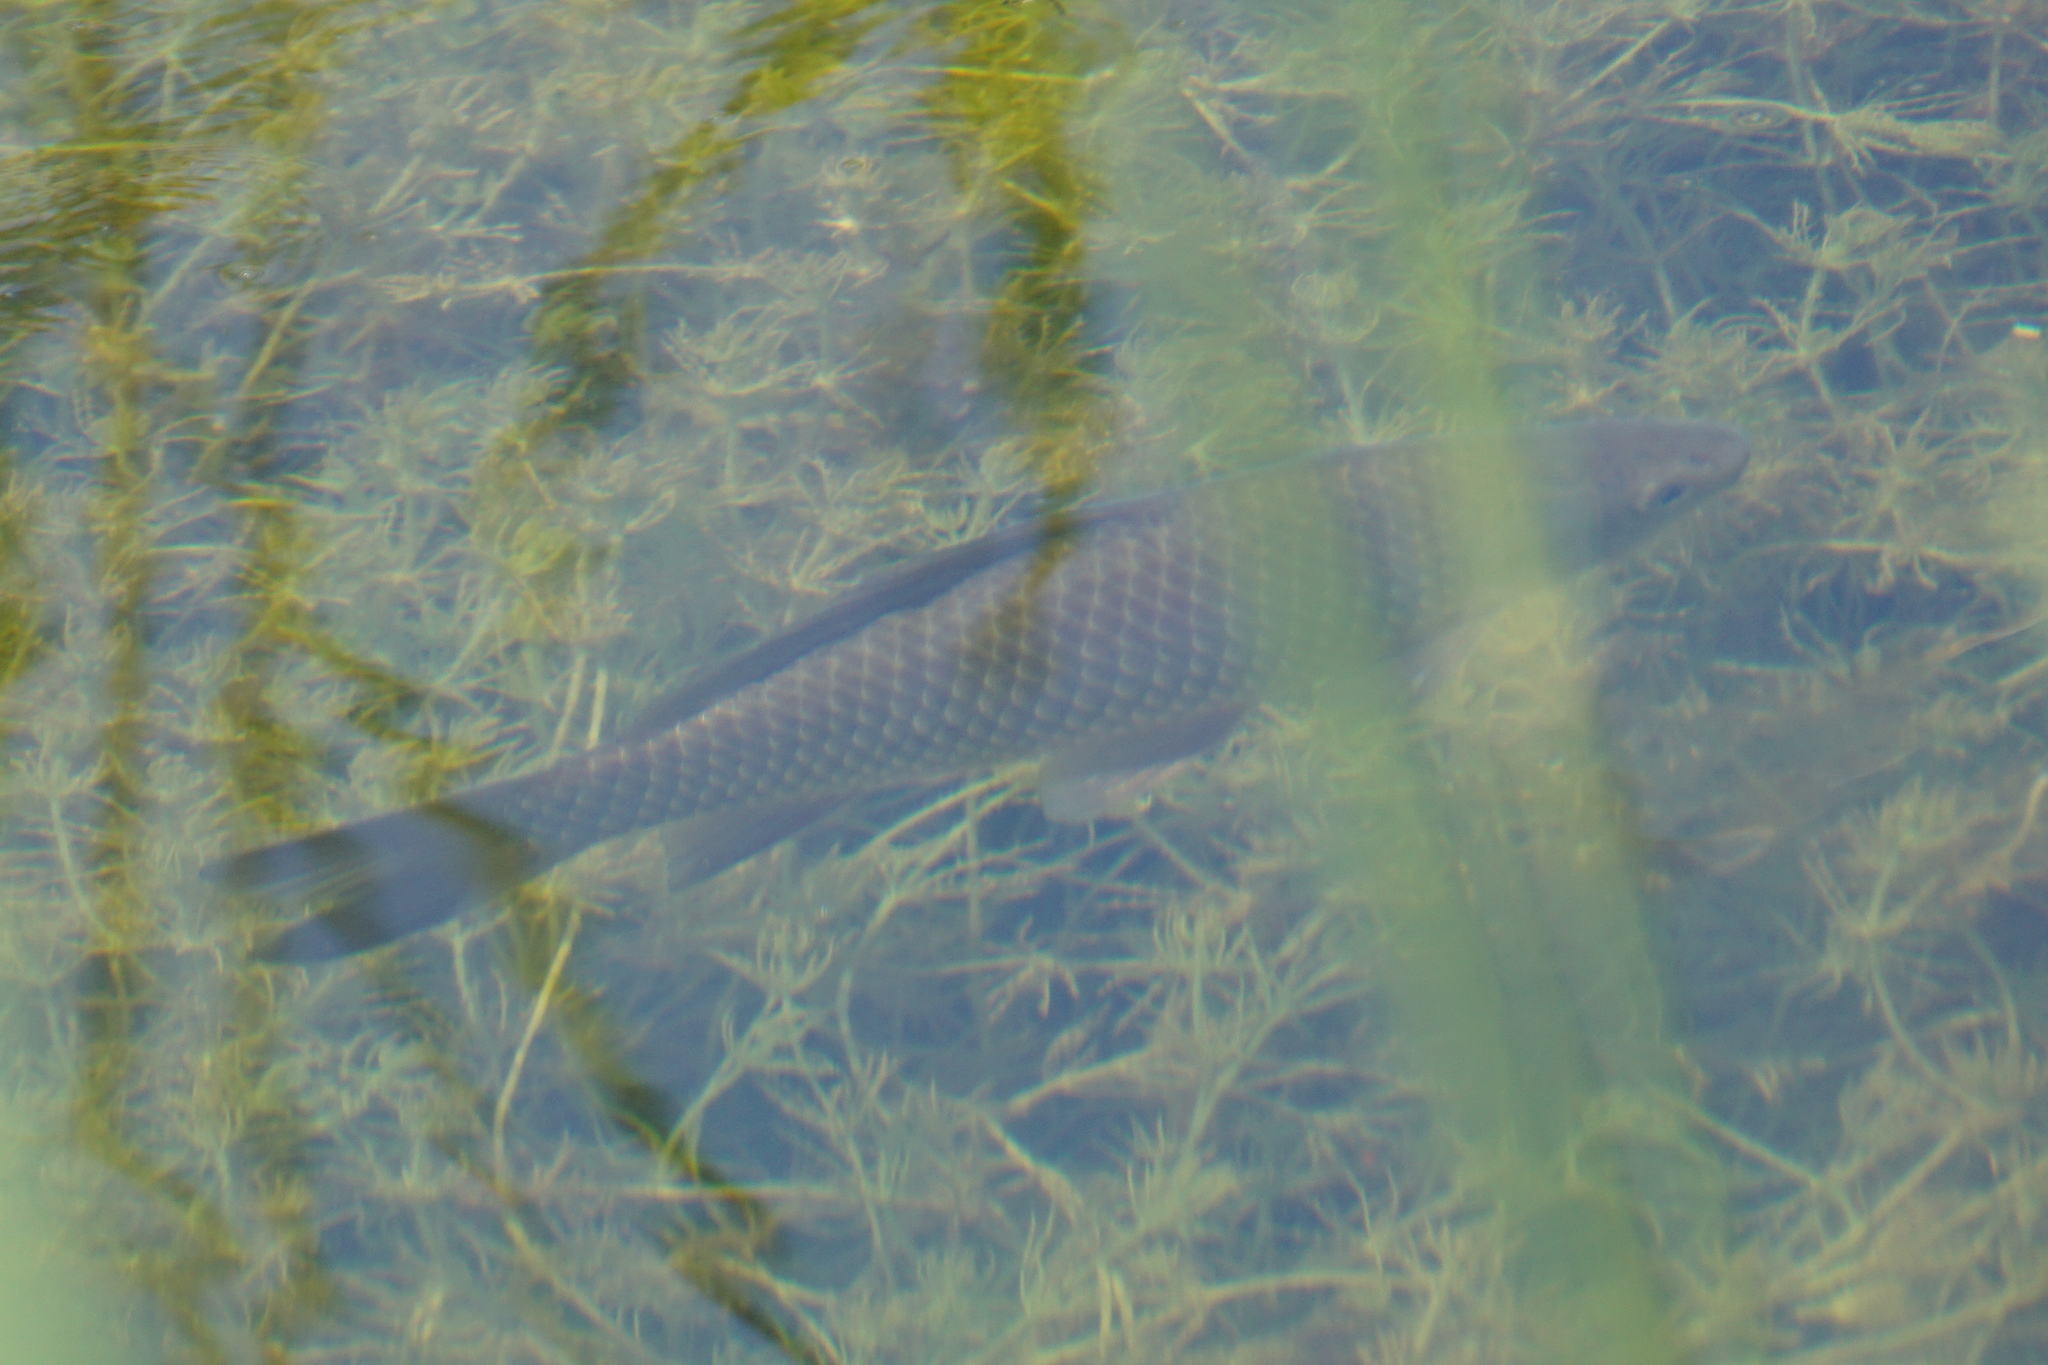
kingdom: Animalia
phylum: Chordata
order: Cypriniformes
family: Cyprinidae
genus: Cyprinus
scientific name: Cyprinus carpio
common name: Common carp
